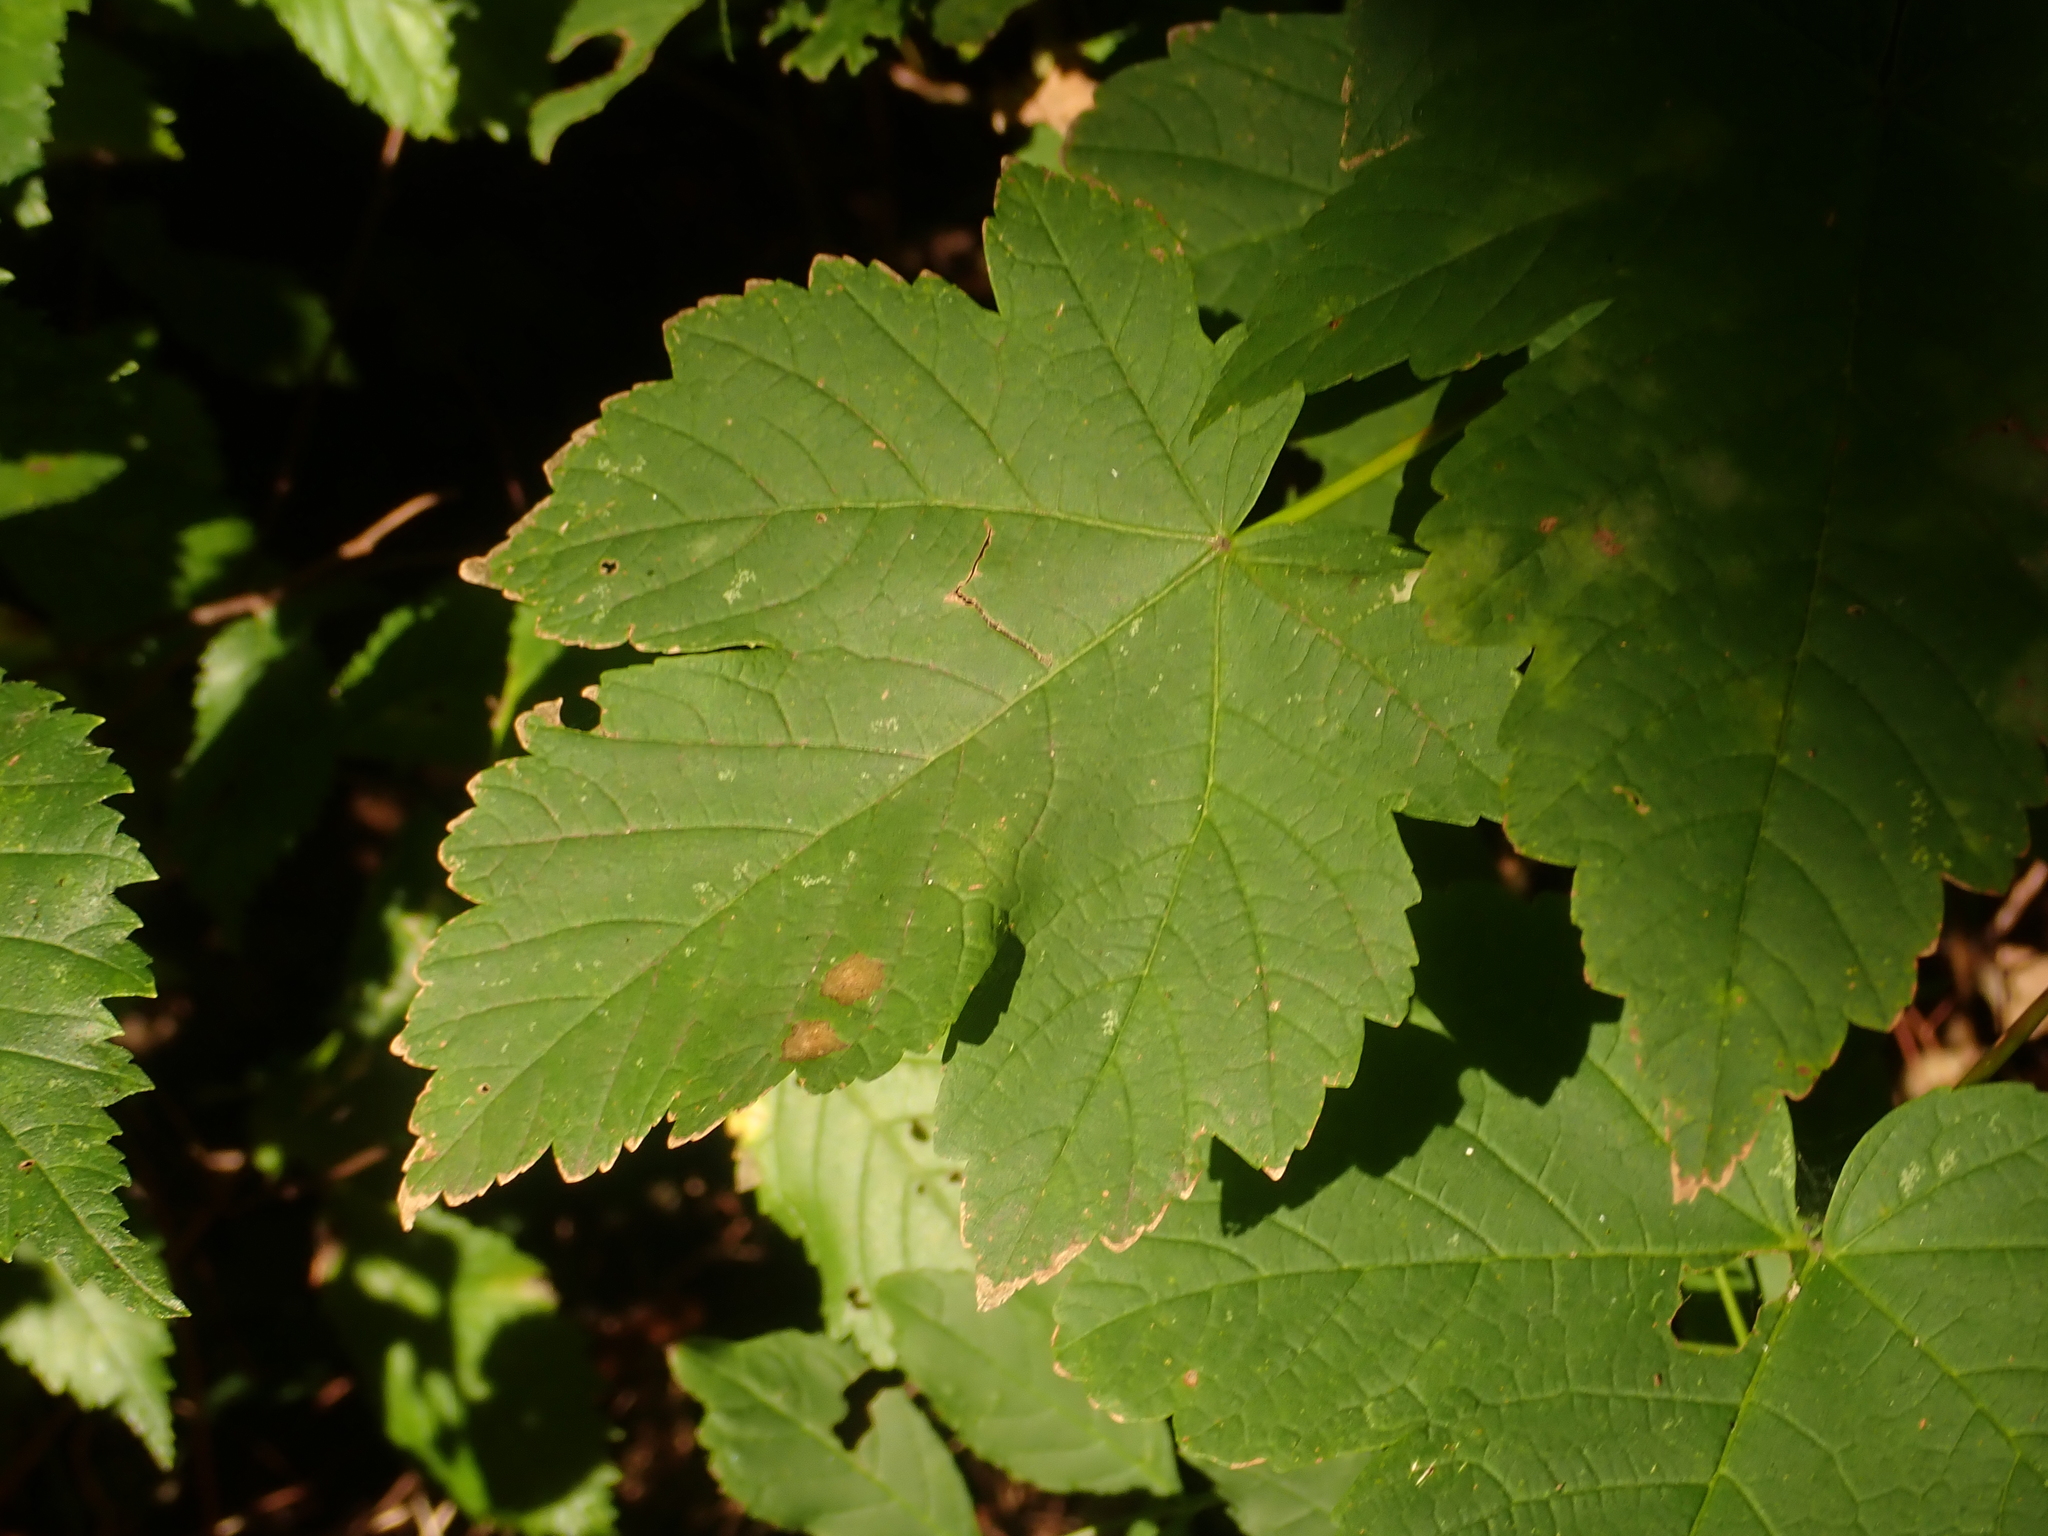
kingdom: Plantae
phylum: Tracheophyta
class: Magnoliopsida
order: Sapindales
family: Sapindaceae
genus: Acer
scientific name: Acer pseudoplatanus
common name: Sycamore
